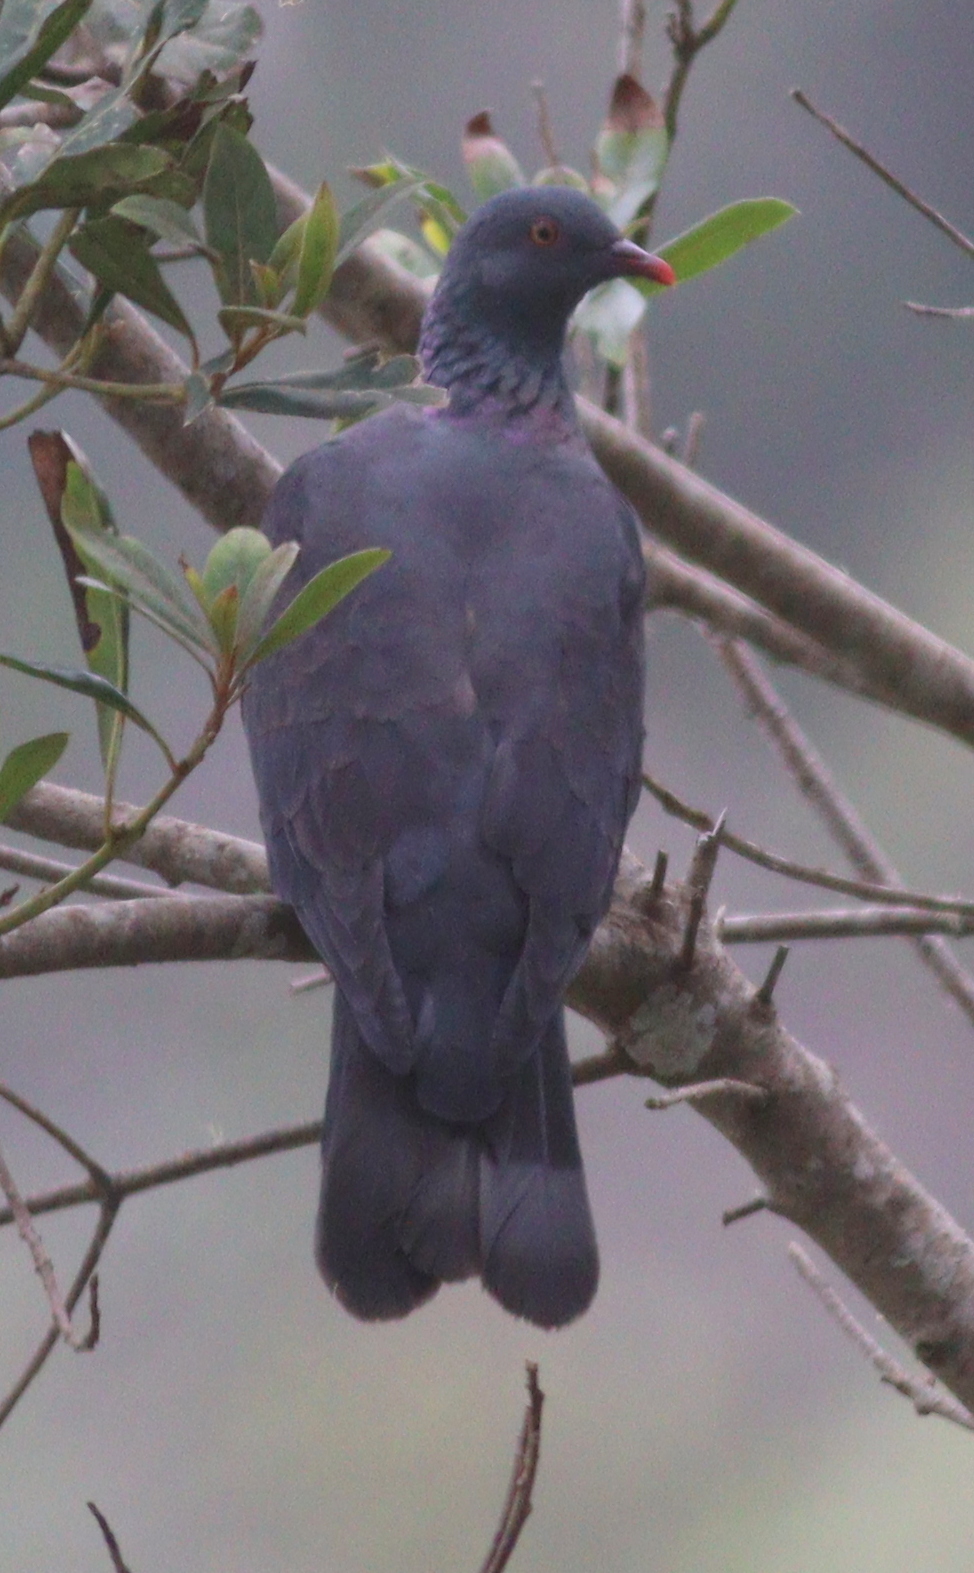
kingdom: Animalia
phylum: Chordata
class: Aves
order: Columbiformes
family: Columbidae
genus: Columba
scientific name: Columba bollii
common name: Bolle's pigeon
